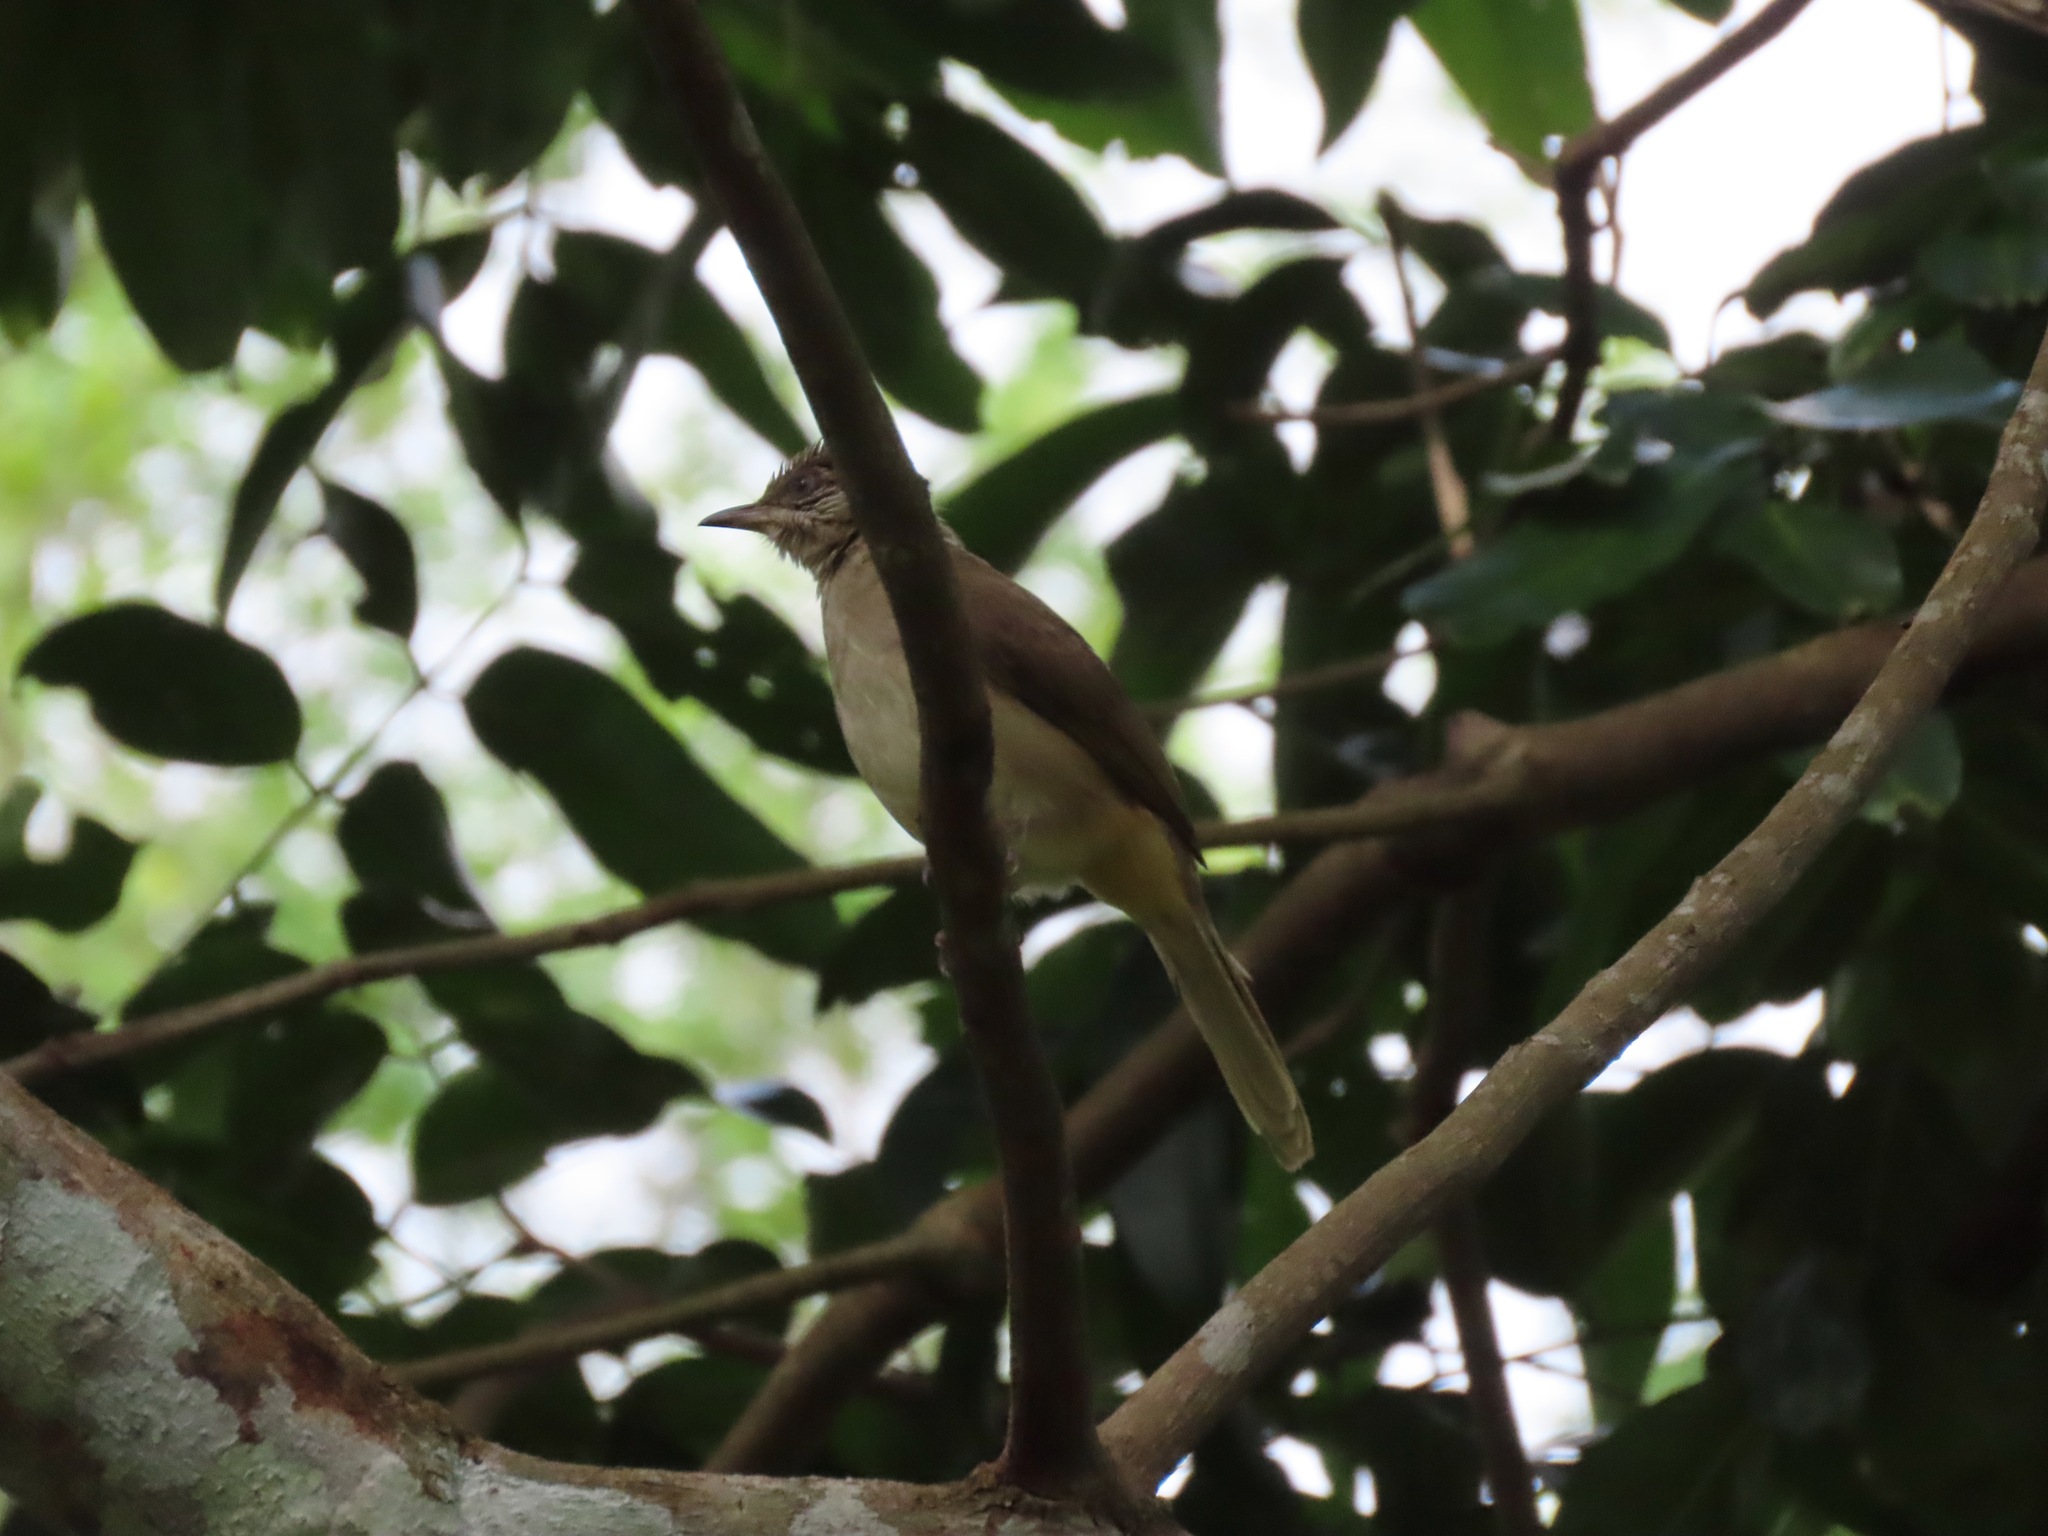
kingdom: Animalia
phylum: Chordata
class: Aves
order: Passeriformes
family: Pycnonotidae
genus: Pycnonotus
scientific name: Pycnonotus blanfordi
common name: Streak-eared bulbul
